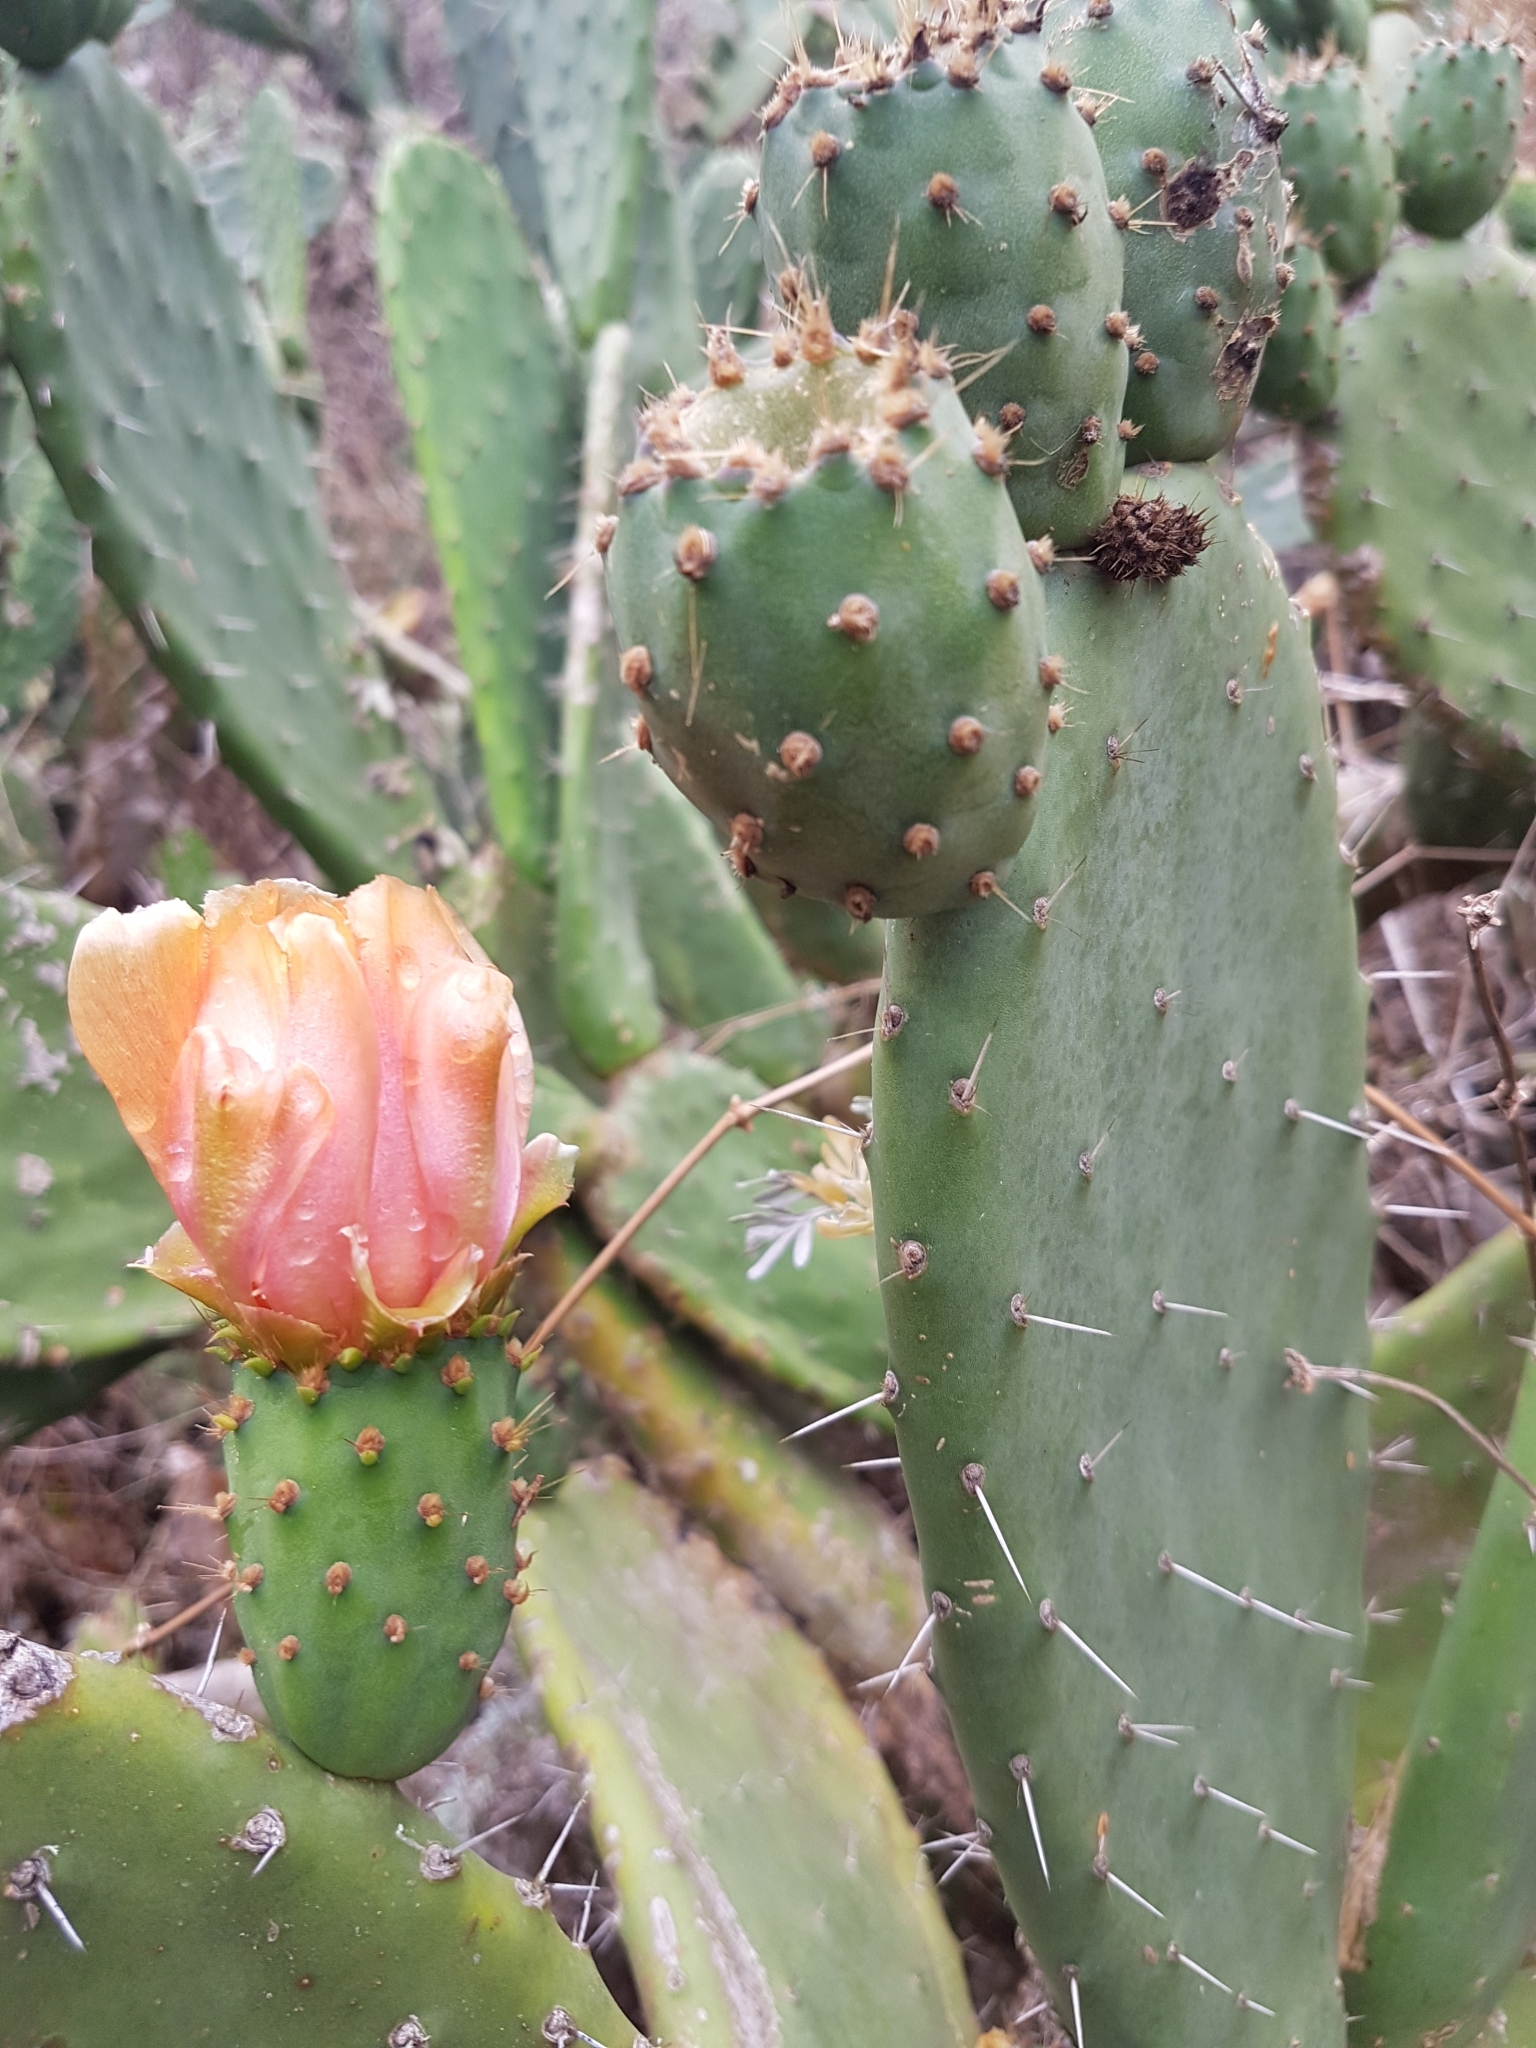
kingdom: Plantae
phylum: Tracheophyta
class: Magnoliopsida
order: Caryophyllales
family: Cactaceae
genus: Opuntia
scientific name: Opuntia ficus-indica
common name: Barbary fig
